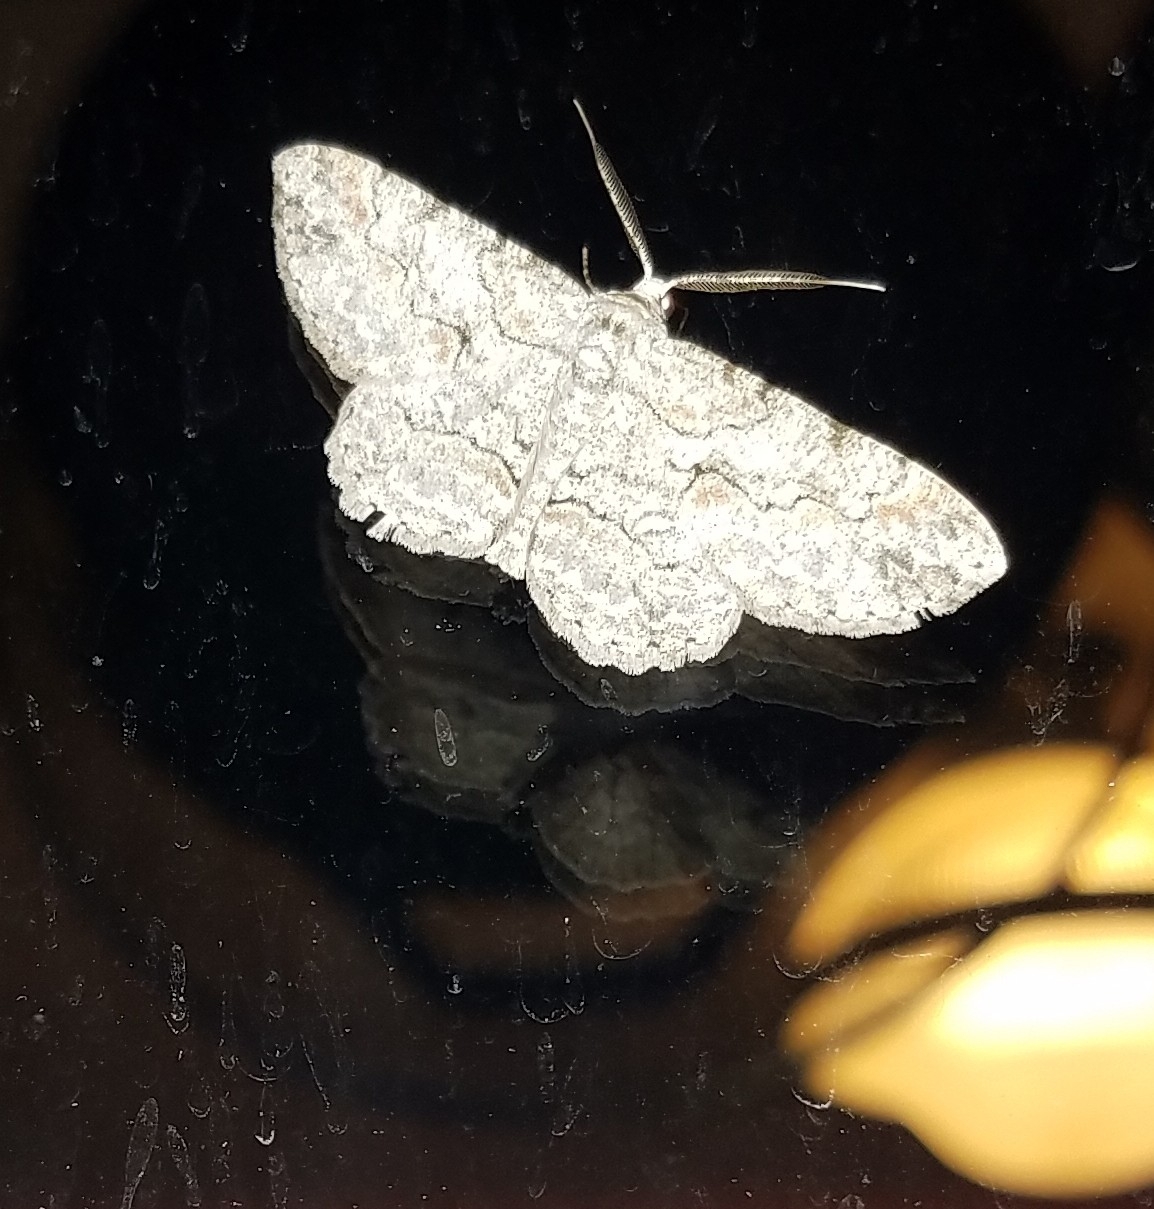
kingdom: Animalia
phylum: Arthropoda
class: Insecta
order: Lepidoptera
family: Geometridae
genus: Iridopsis
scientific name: Iridopsis defectaria
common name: Brown-shaded gray
